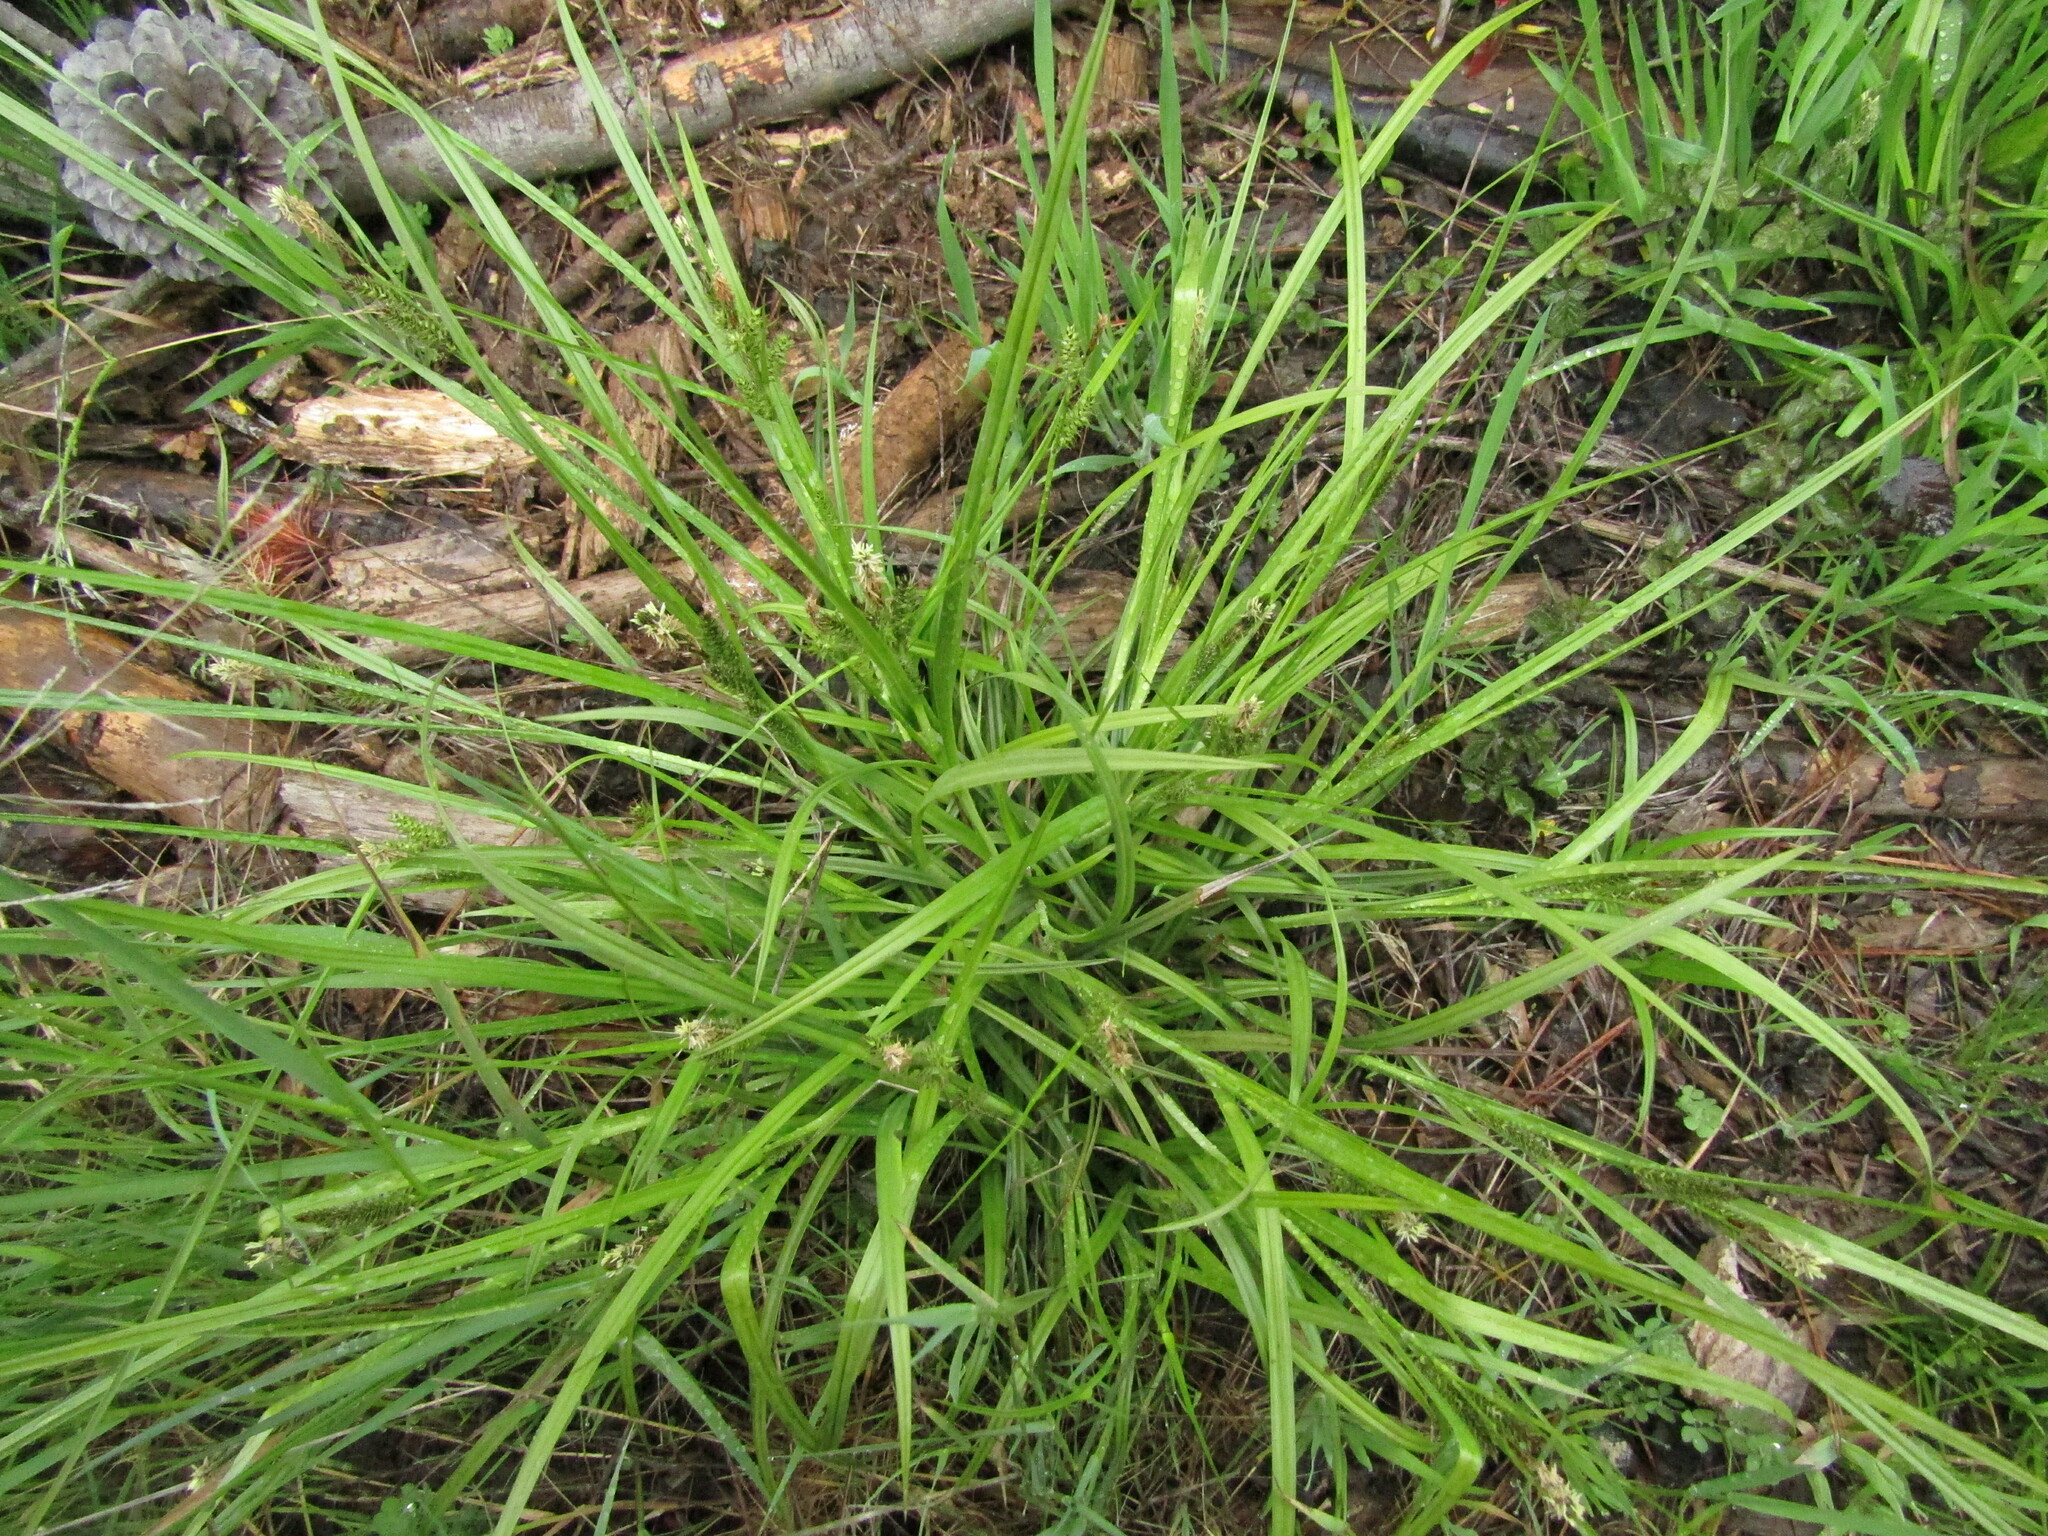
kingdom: Plantae
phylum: Tracheophyta
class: Liliopsida
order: Poales
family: Cyperaceae
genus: Carex
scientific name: Carex fuscula
